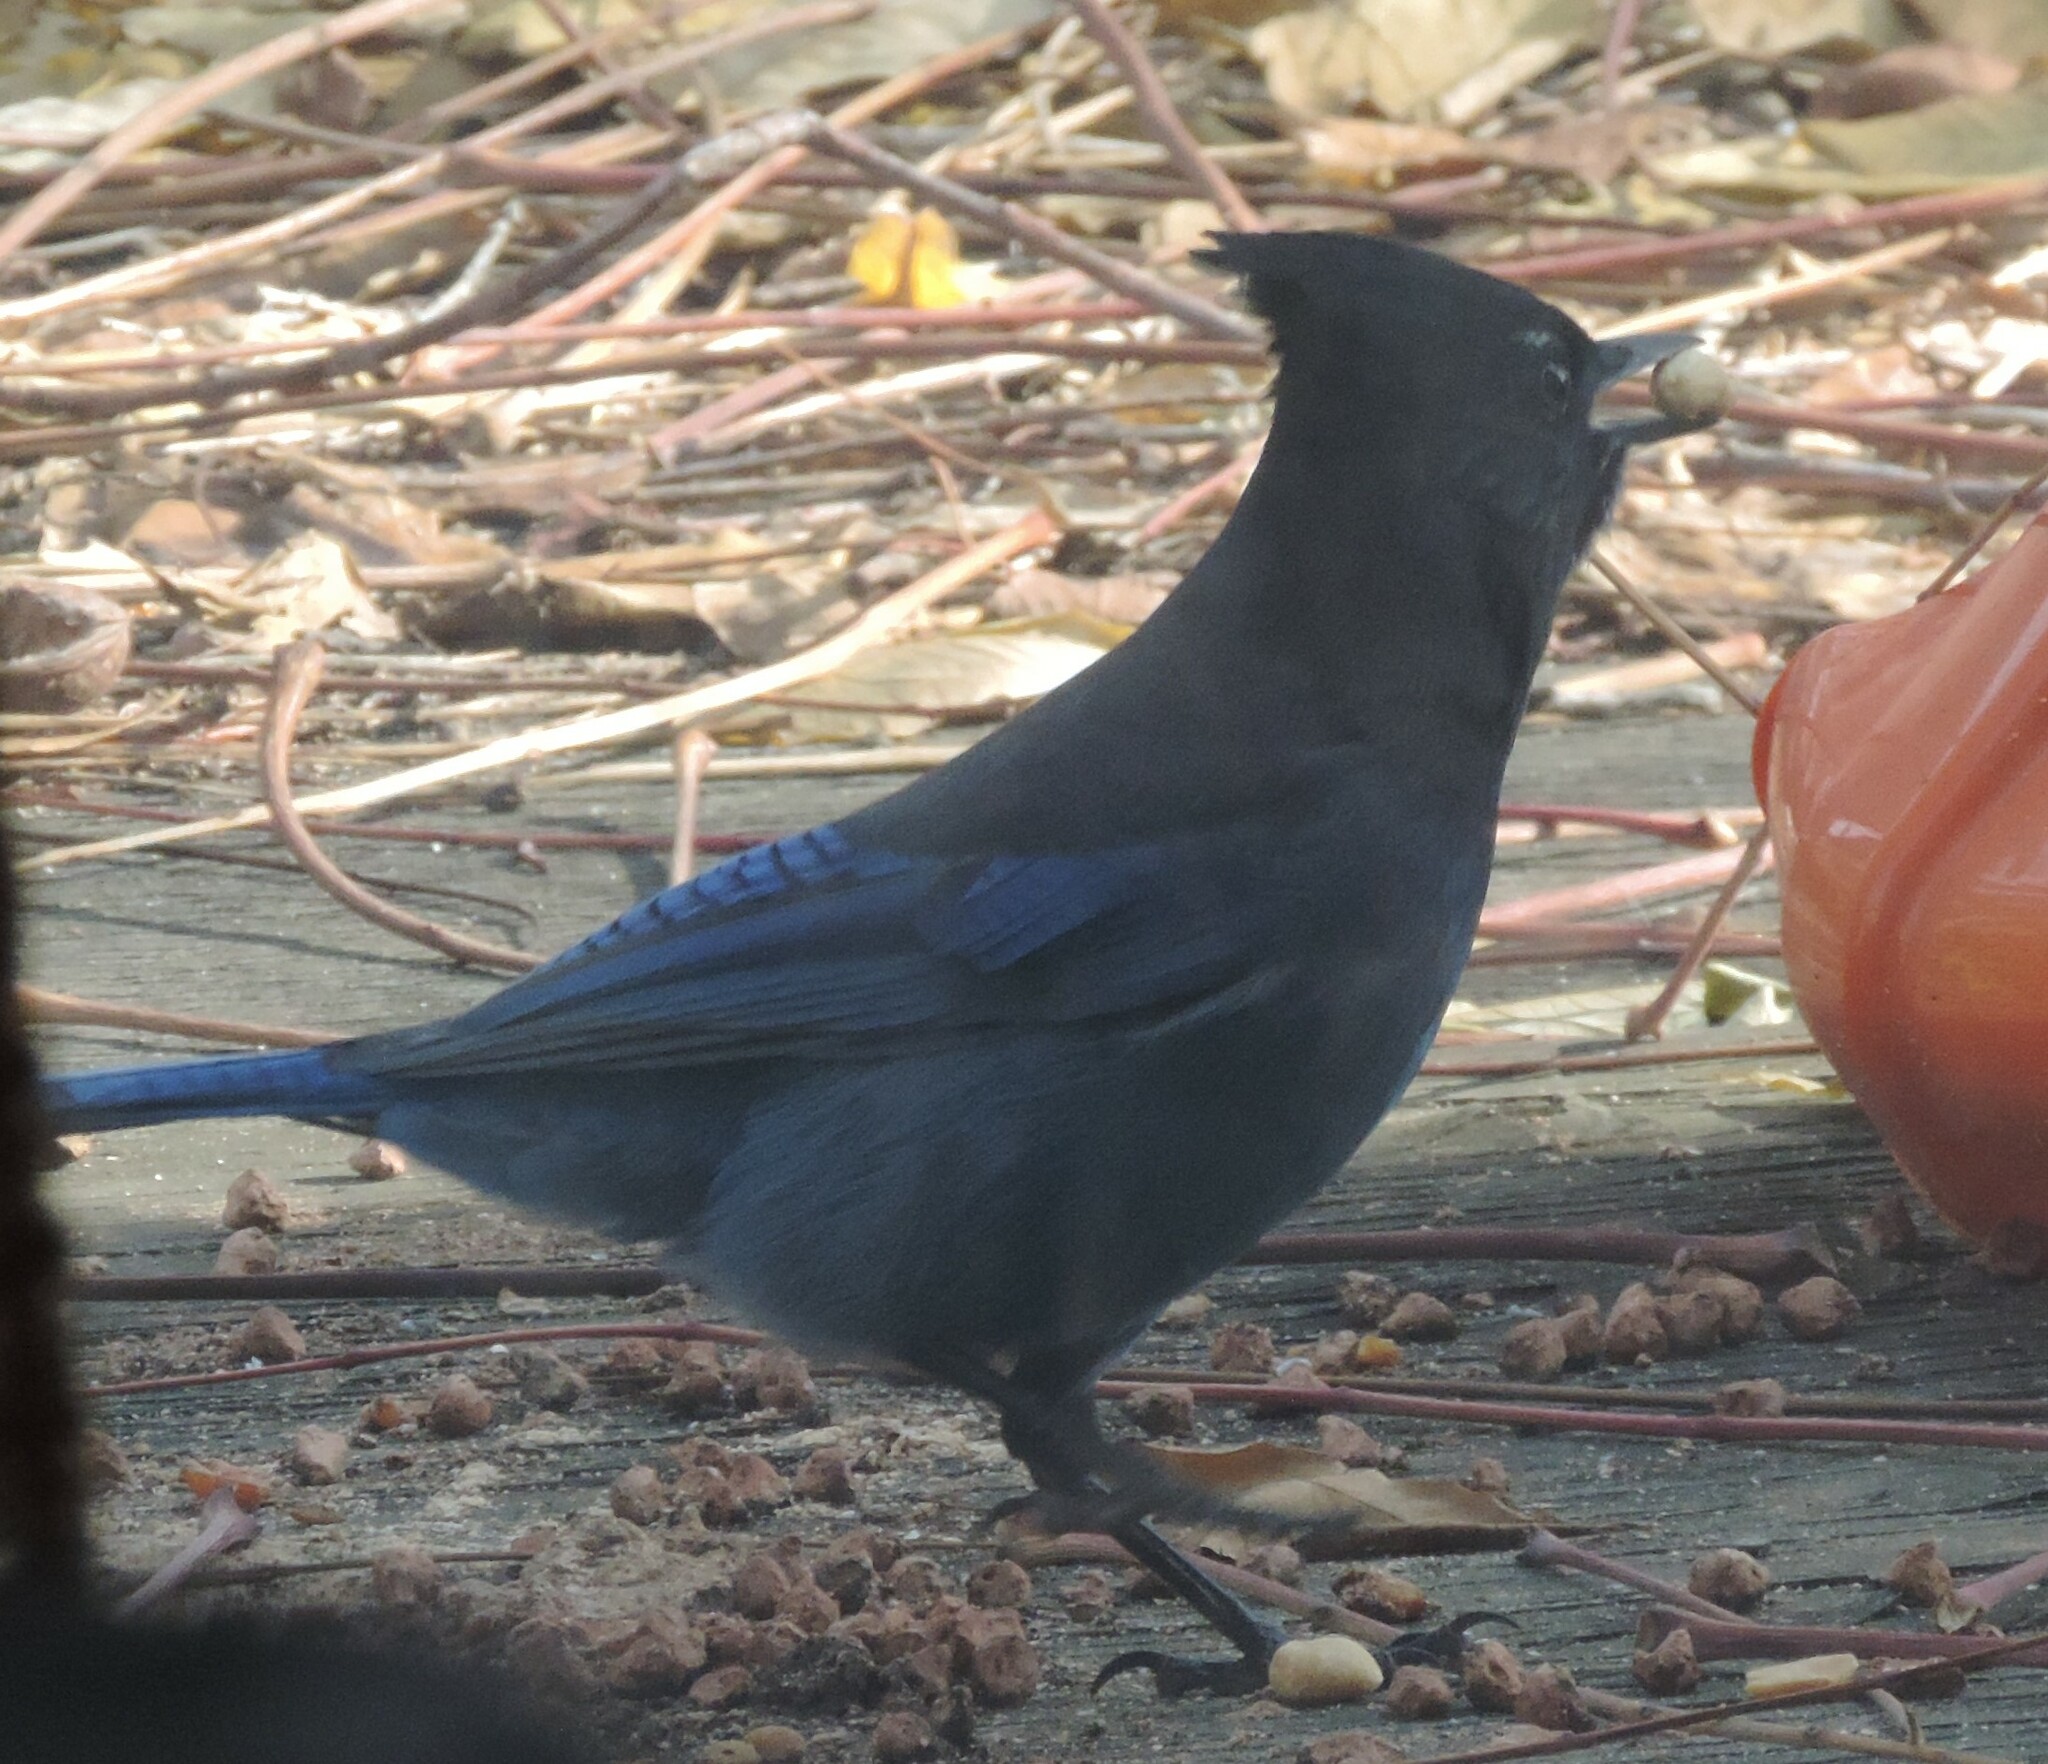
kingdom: Animalia
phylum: Chordata
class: Aves
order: Passeriformes
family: Corvidae
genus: Cyanocitta
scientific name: Cyanocitta stelleri
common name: Steller's jay
